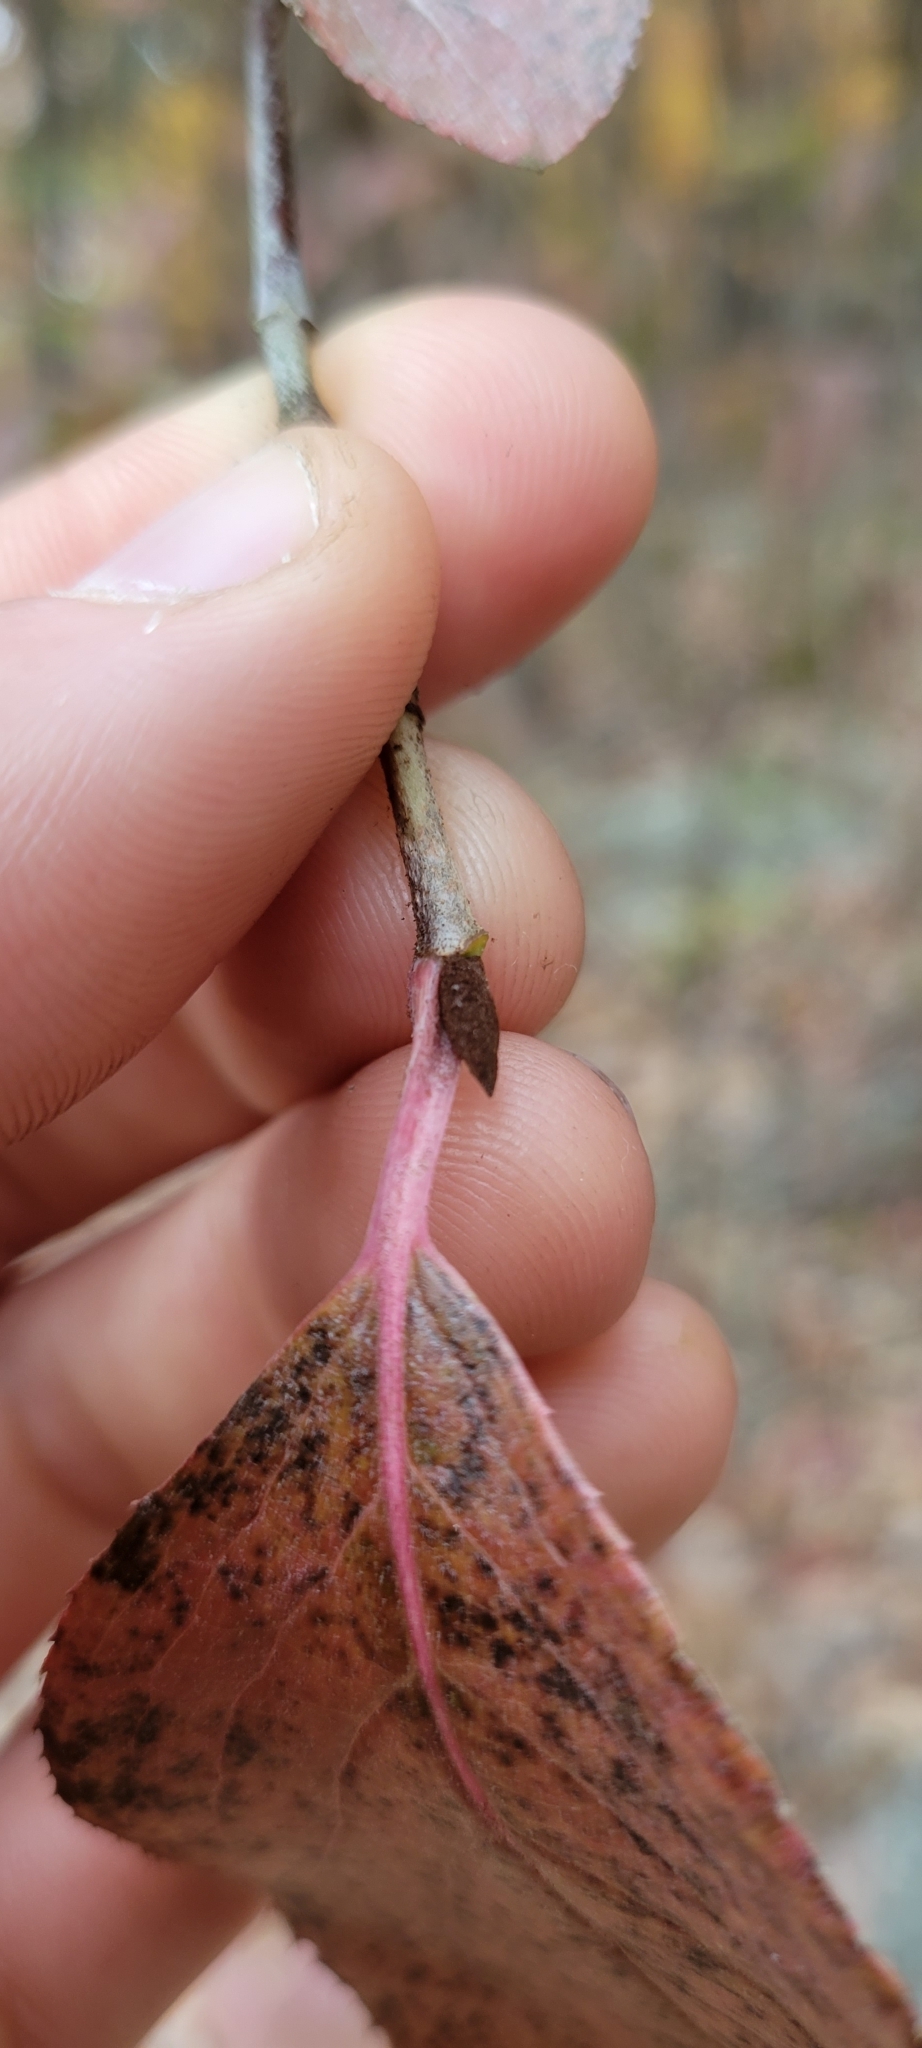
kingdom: Plantae
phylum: Tracheophyta
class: Magnoliopsida
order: Dipsacales
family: Viburnaceae
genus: Viburnum
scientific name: Viburnum rufidulum
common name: Blue haw
